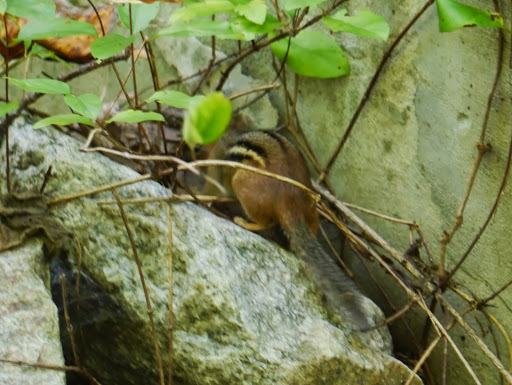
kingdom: Animalia
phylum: Chordata
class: Mammalia
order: Rodentia
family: Sciuridae
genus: Tamias
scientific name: Tamias striatus
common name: Eastern chipmunk
